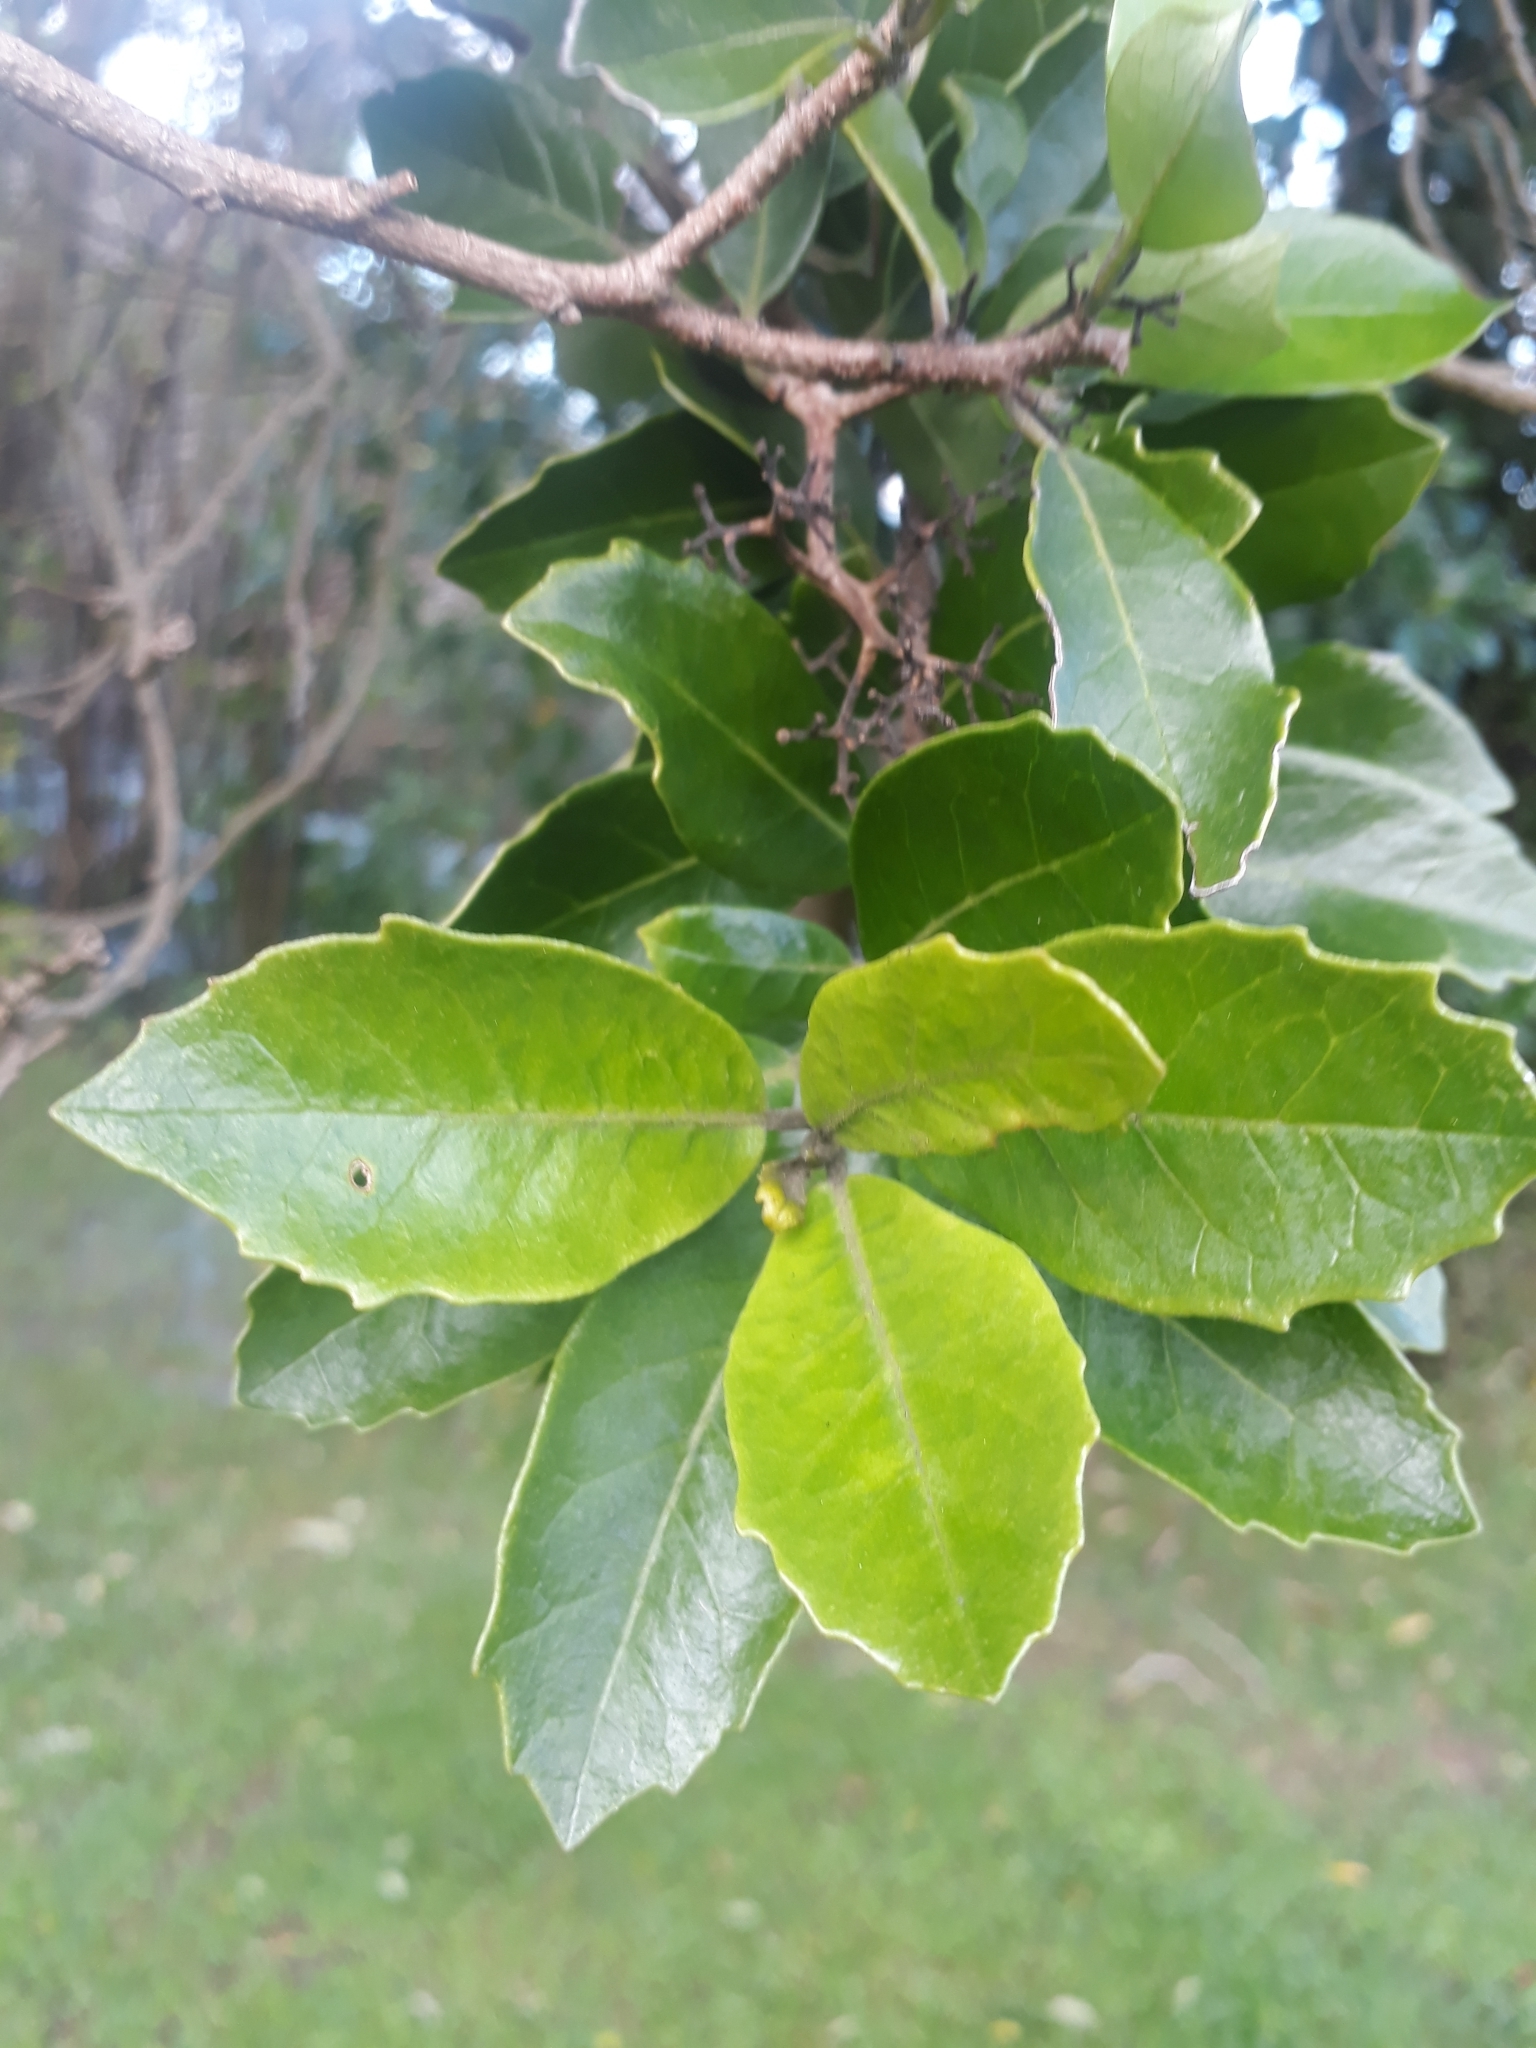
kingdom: Plantae
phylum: Tracheophyta
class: Magnoliopsida
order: Apiales
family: Pennantiaceae
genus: Pennantia
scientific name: Pennantia corymbosa
